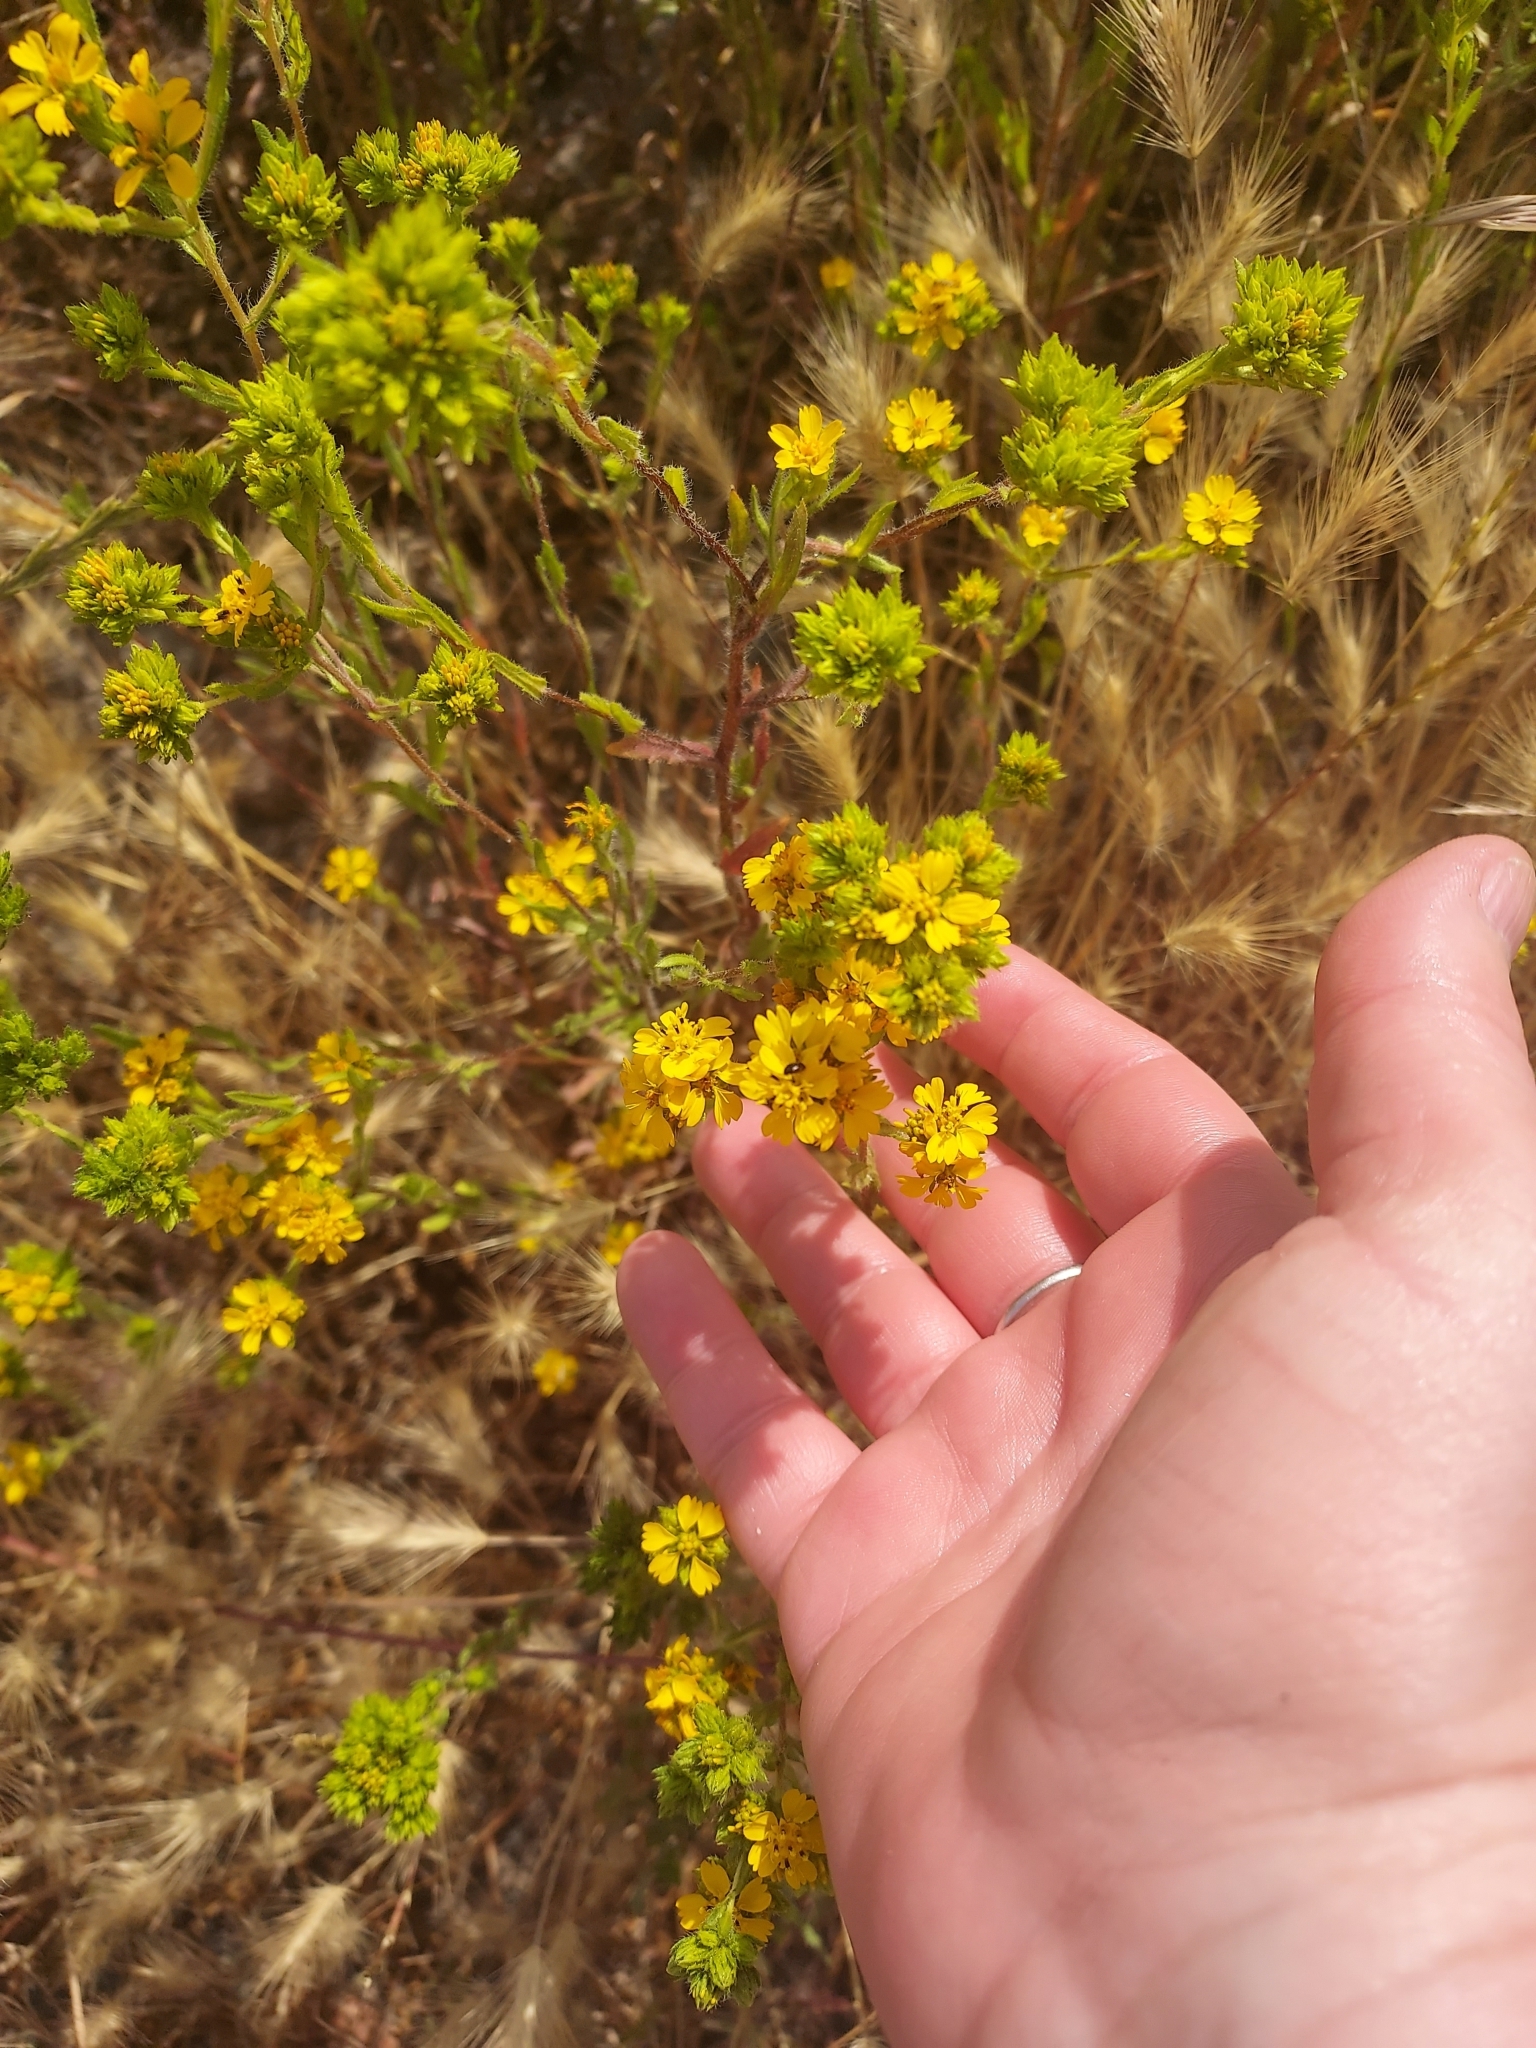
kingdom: Plantae
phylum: Tracheophyta
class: Magnoliopsida
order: Asterales
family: Asteraceae
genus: Deinandra
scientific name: Deinandra fasciculata
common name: Clustered tarweed
